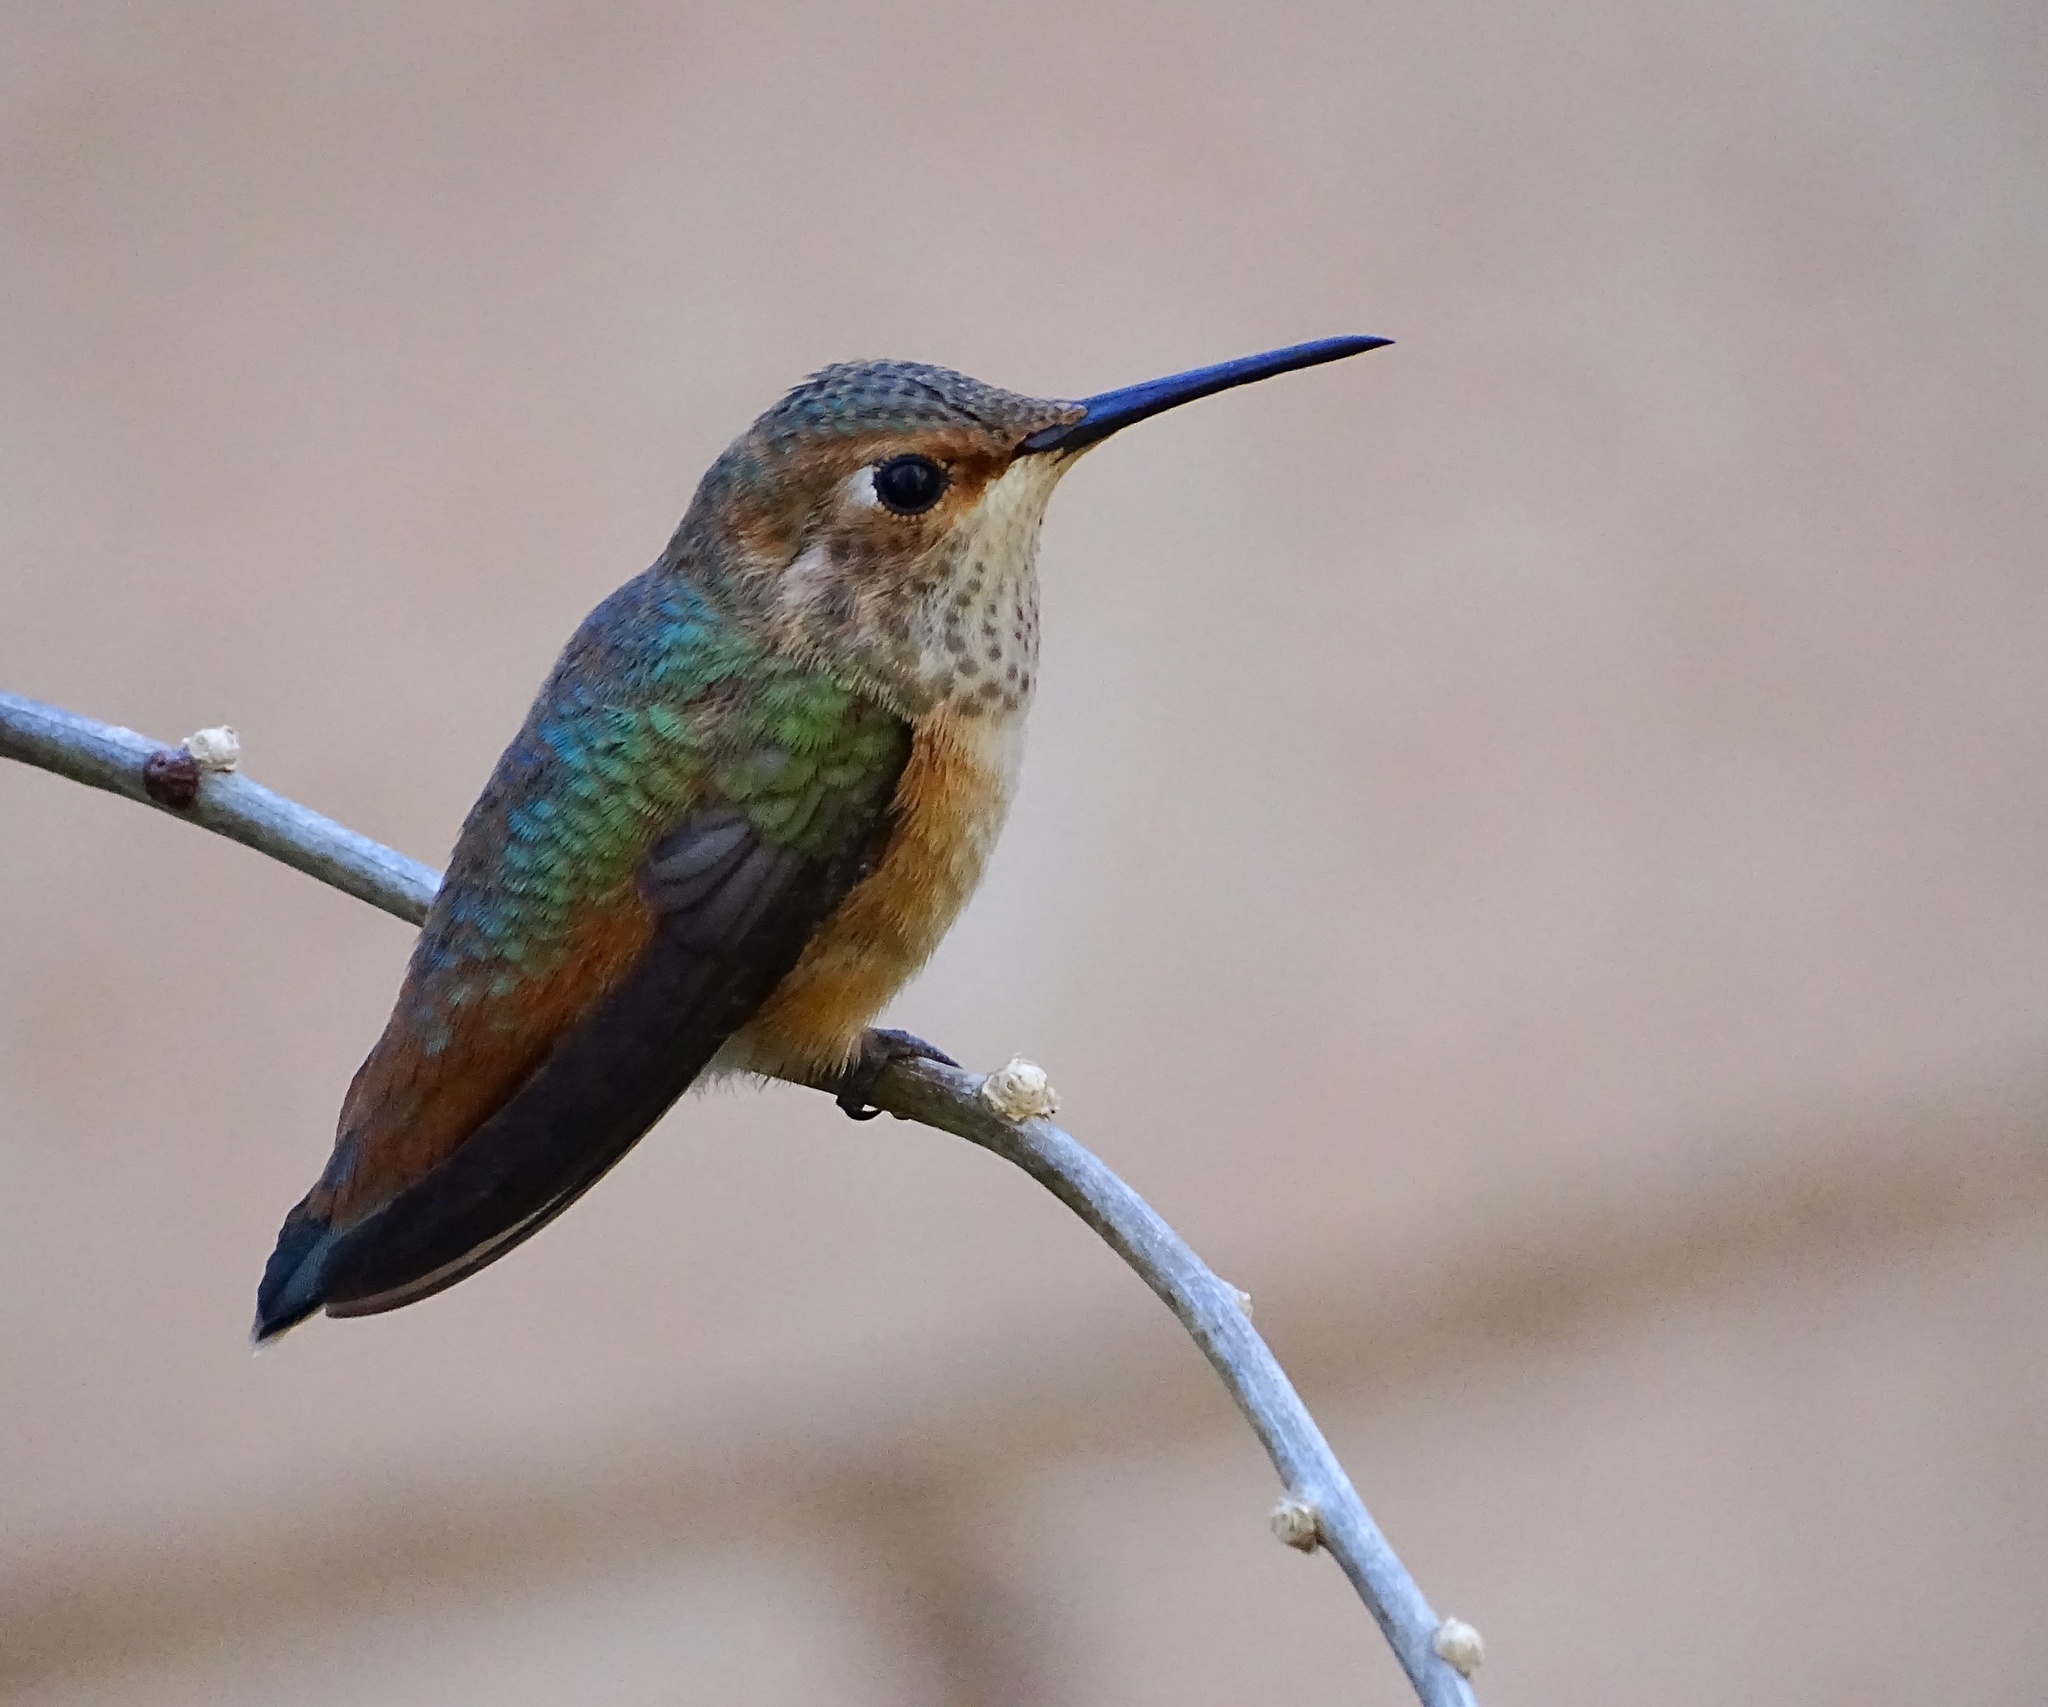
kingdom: Animalia
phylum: Chordata
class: Aves
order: Apodiformes
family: Trochilidae
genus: Selasphorus
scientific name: Selasphorus sasin
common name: Allen's hummingbird
